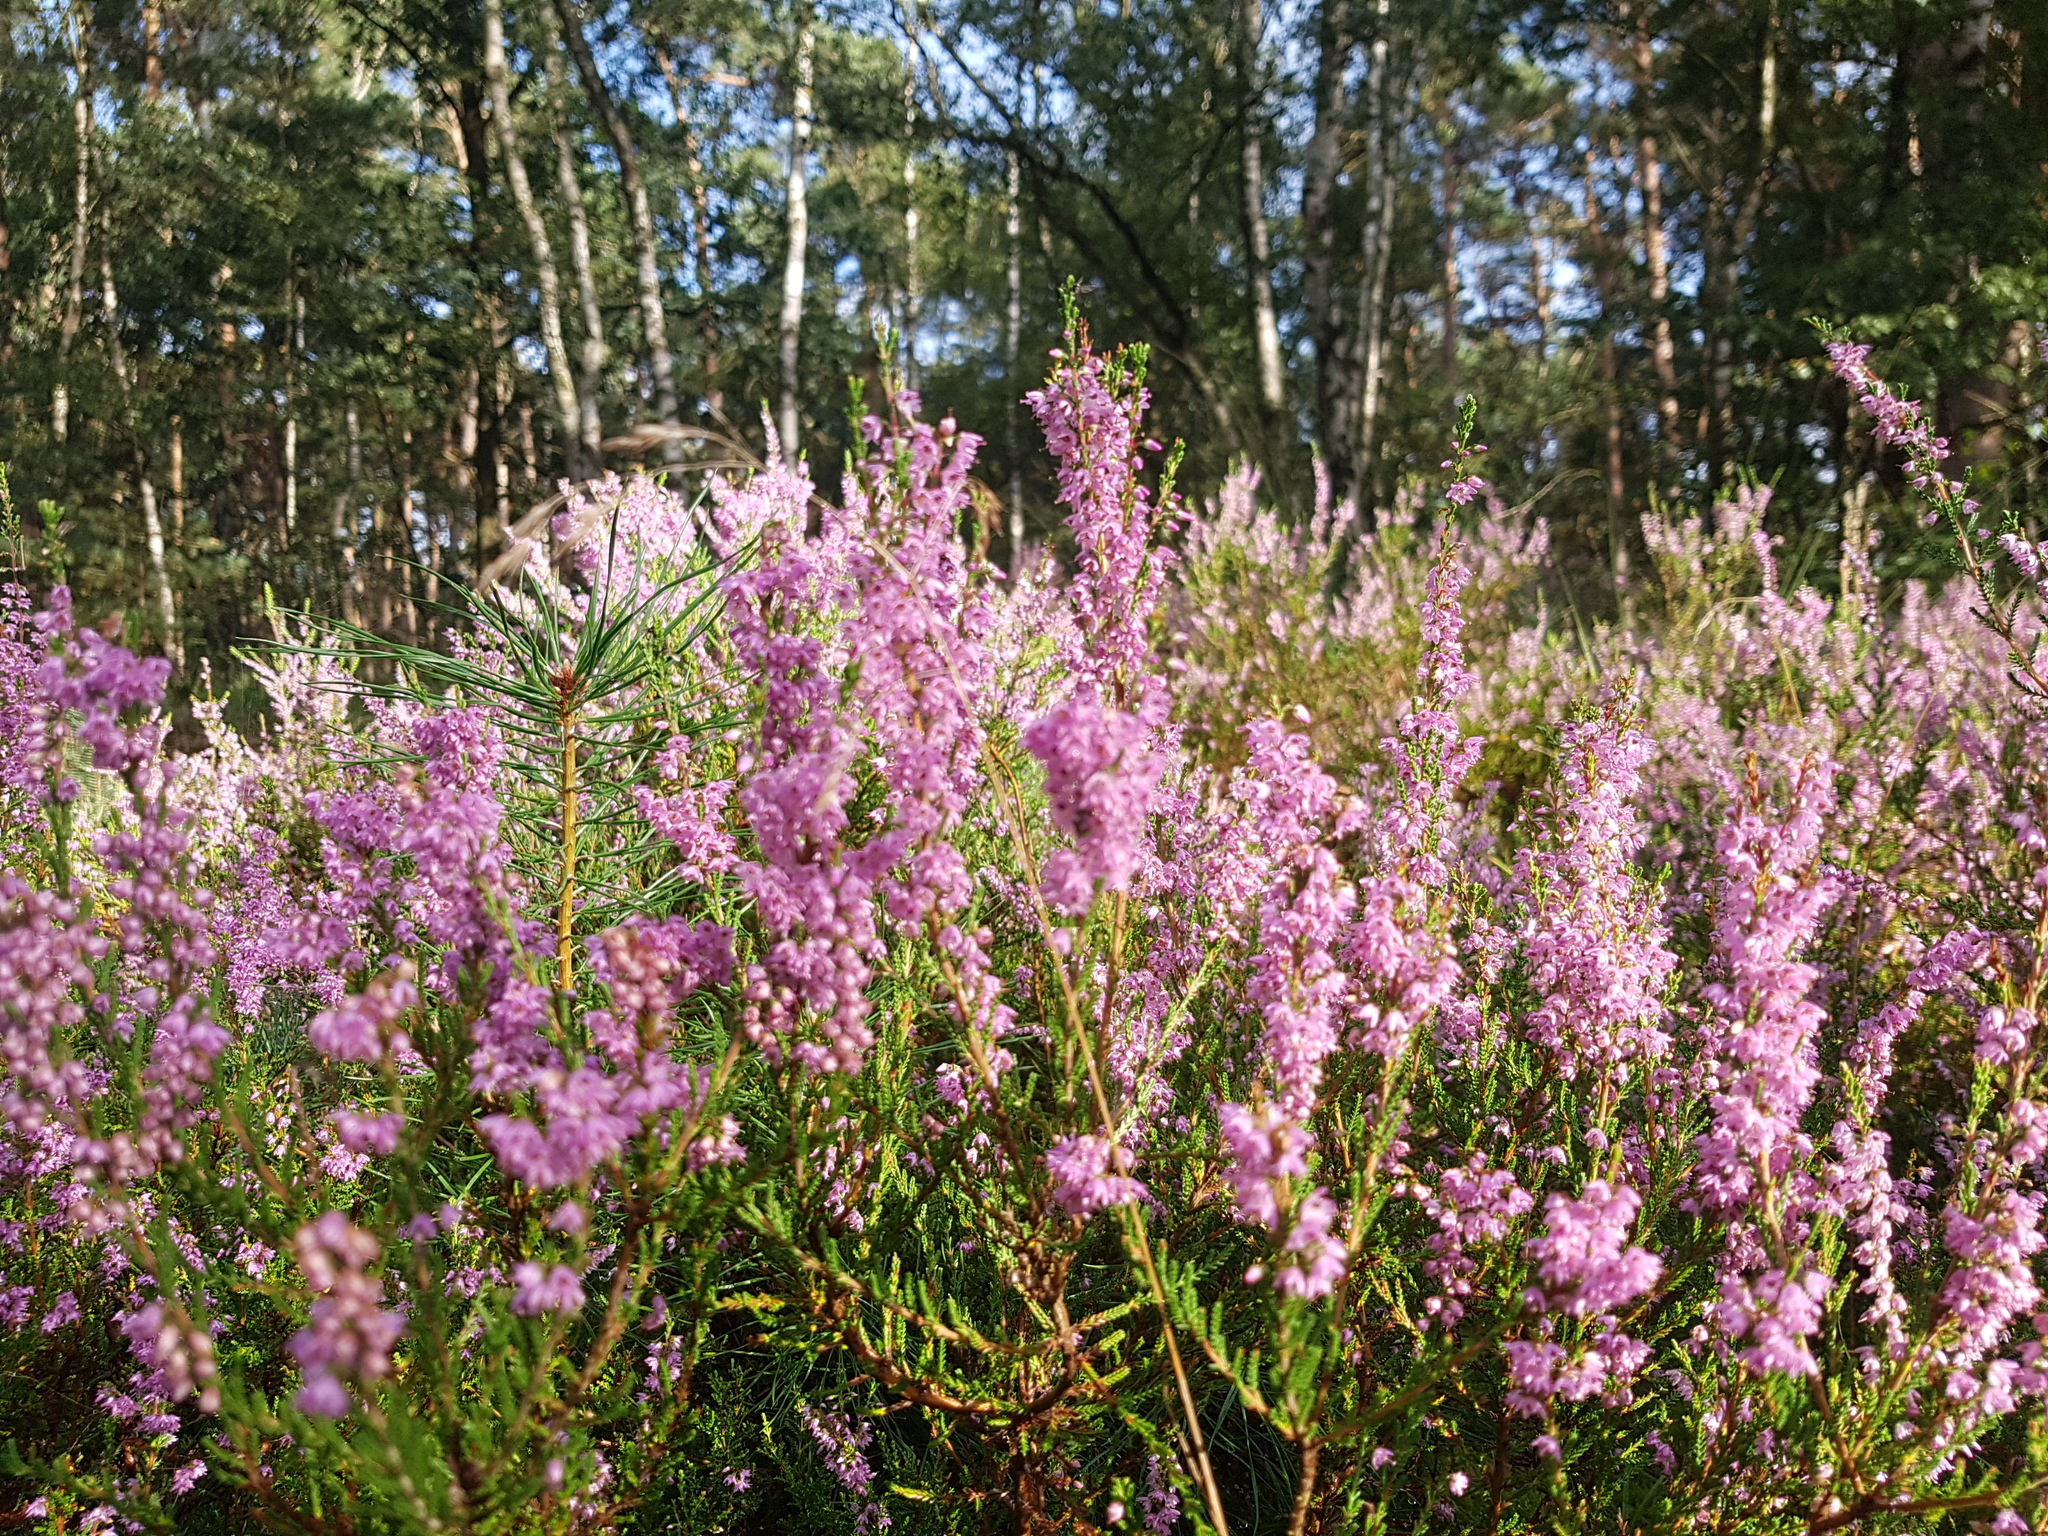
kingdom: Plantae
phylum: Tracheophyta
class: Magnoliopsida
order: Ericales
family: Ericaceae
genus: Calluna
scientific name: Calluna vulgaris
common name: Heather
